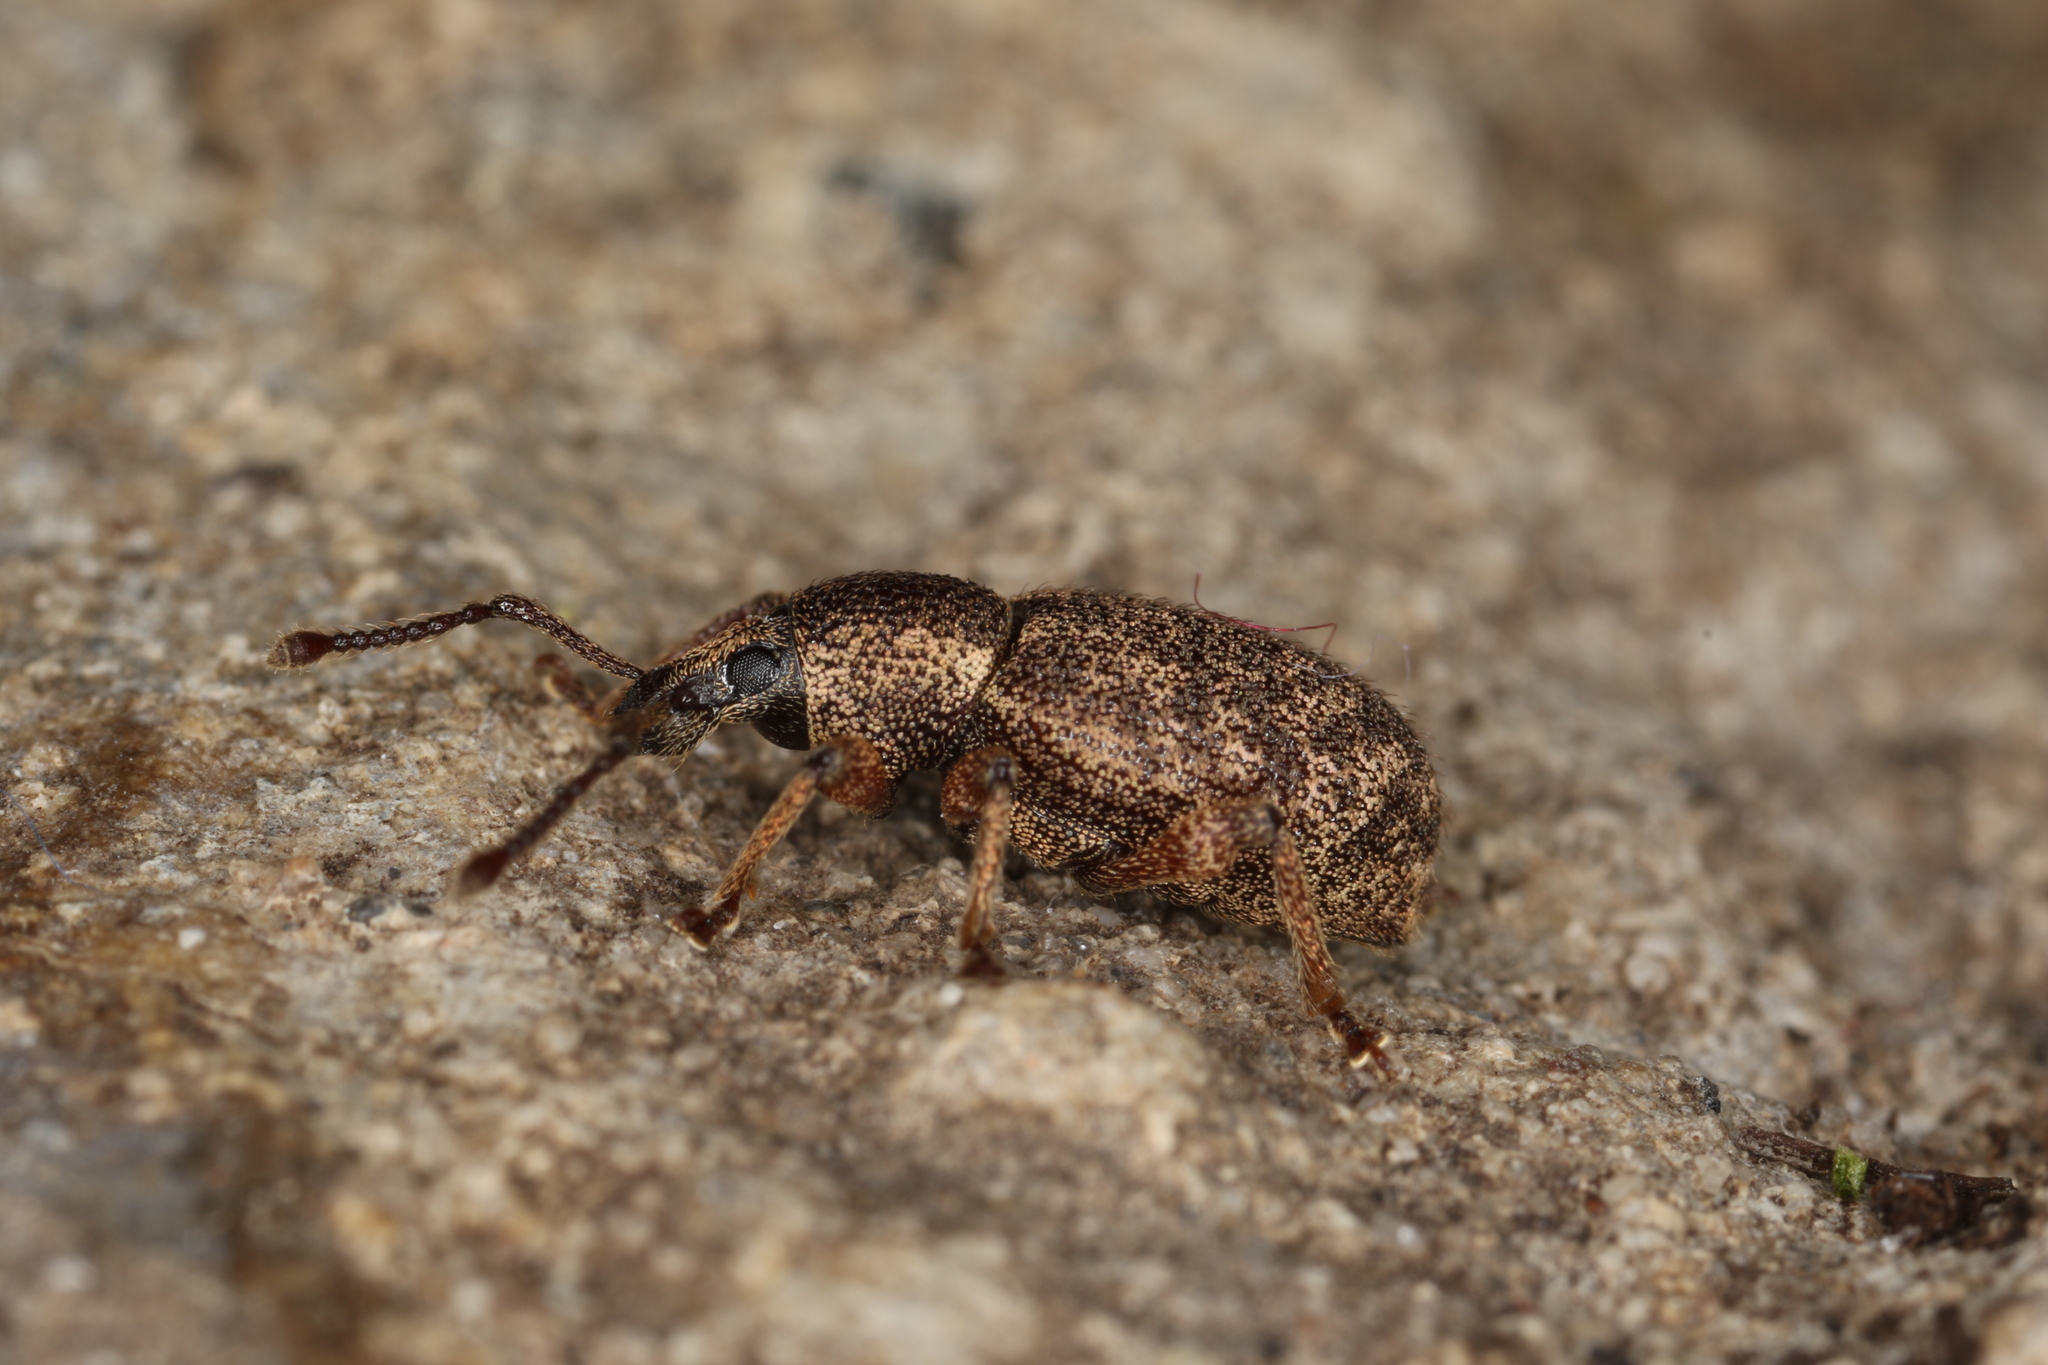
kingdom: Animalia
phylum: Arthropoda
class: Insecta
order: Coleoptera
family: Curculionidae
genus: Otiorhynchus
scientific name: Otiorhynchus singularis
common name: Clay-coloured weevil
